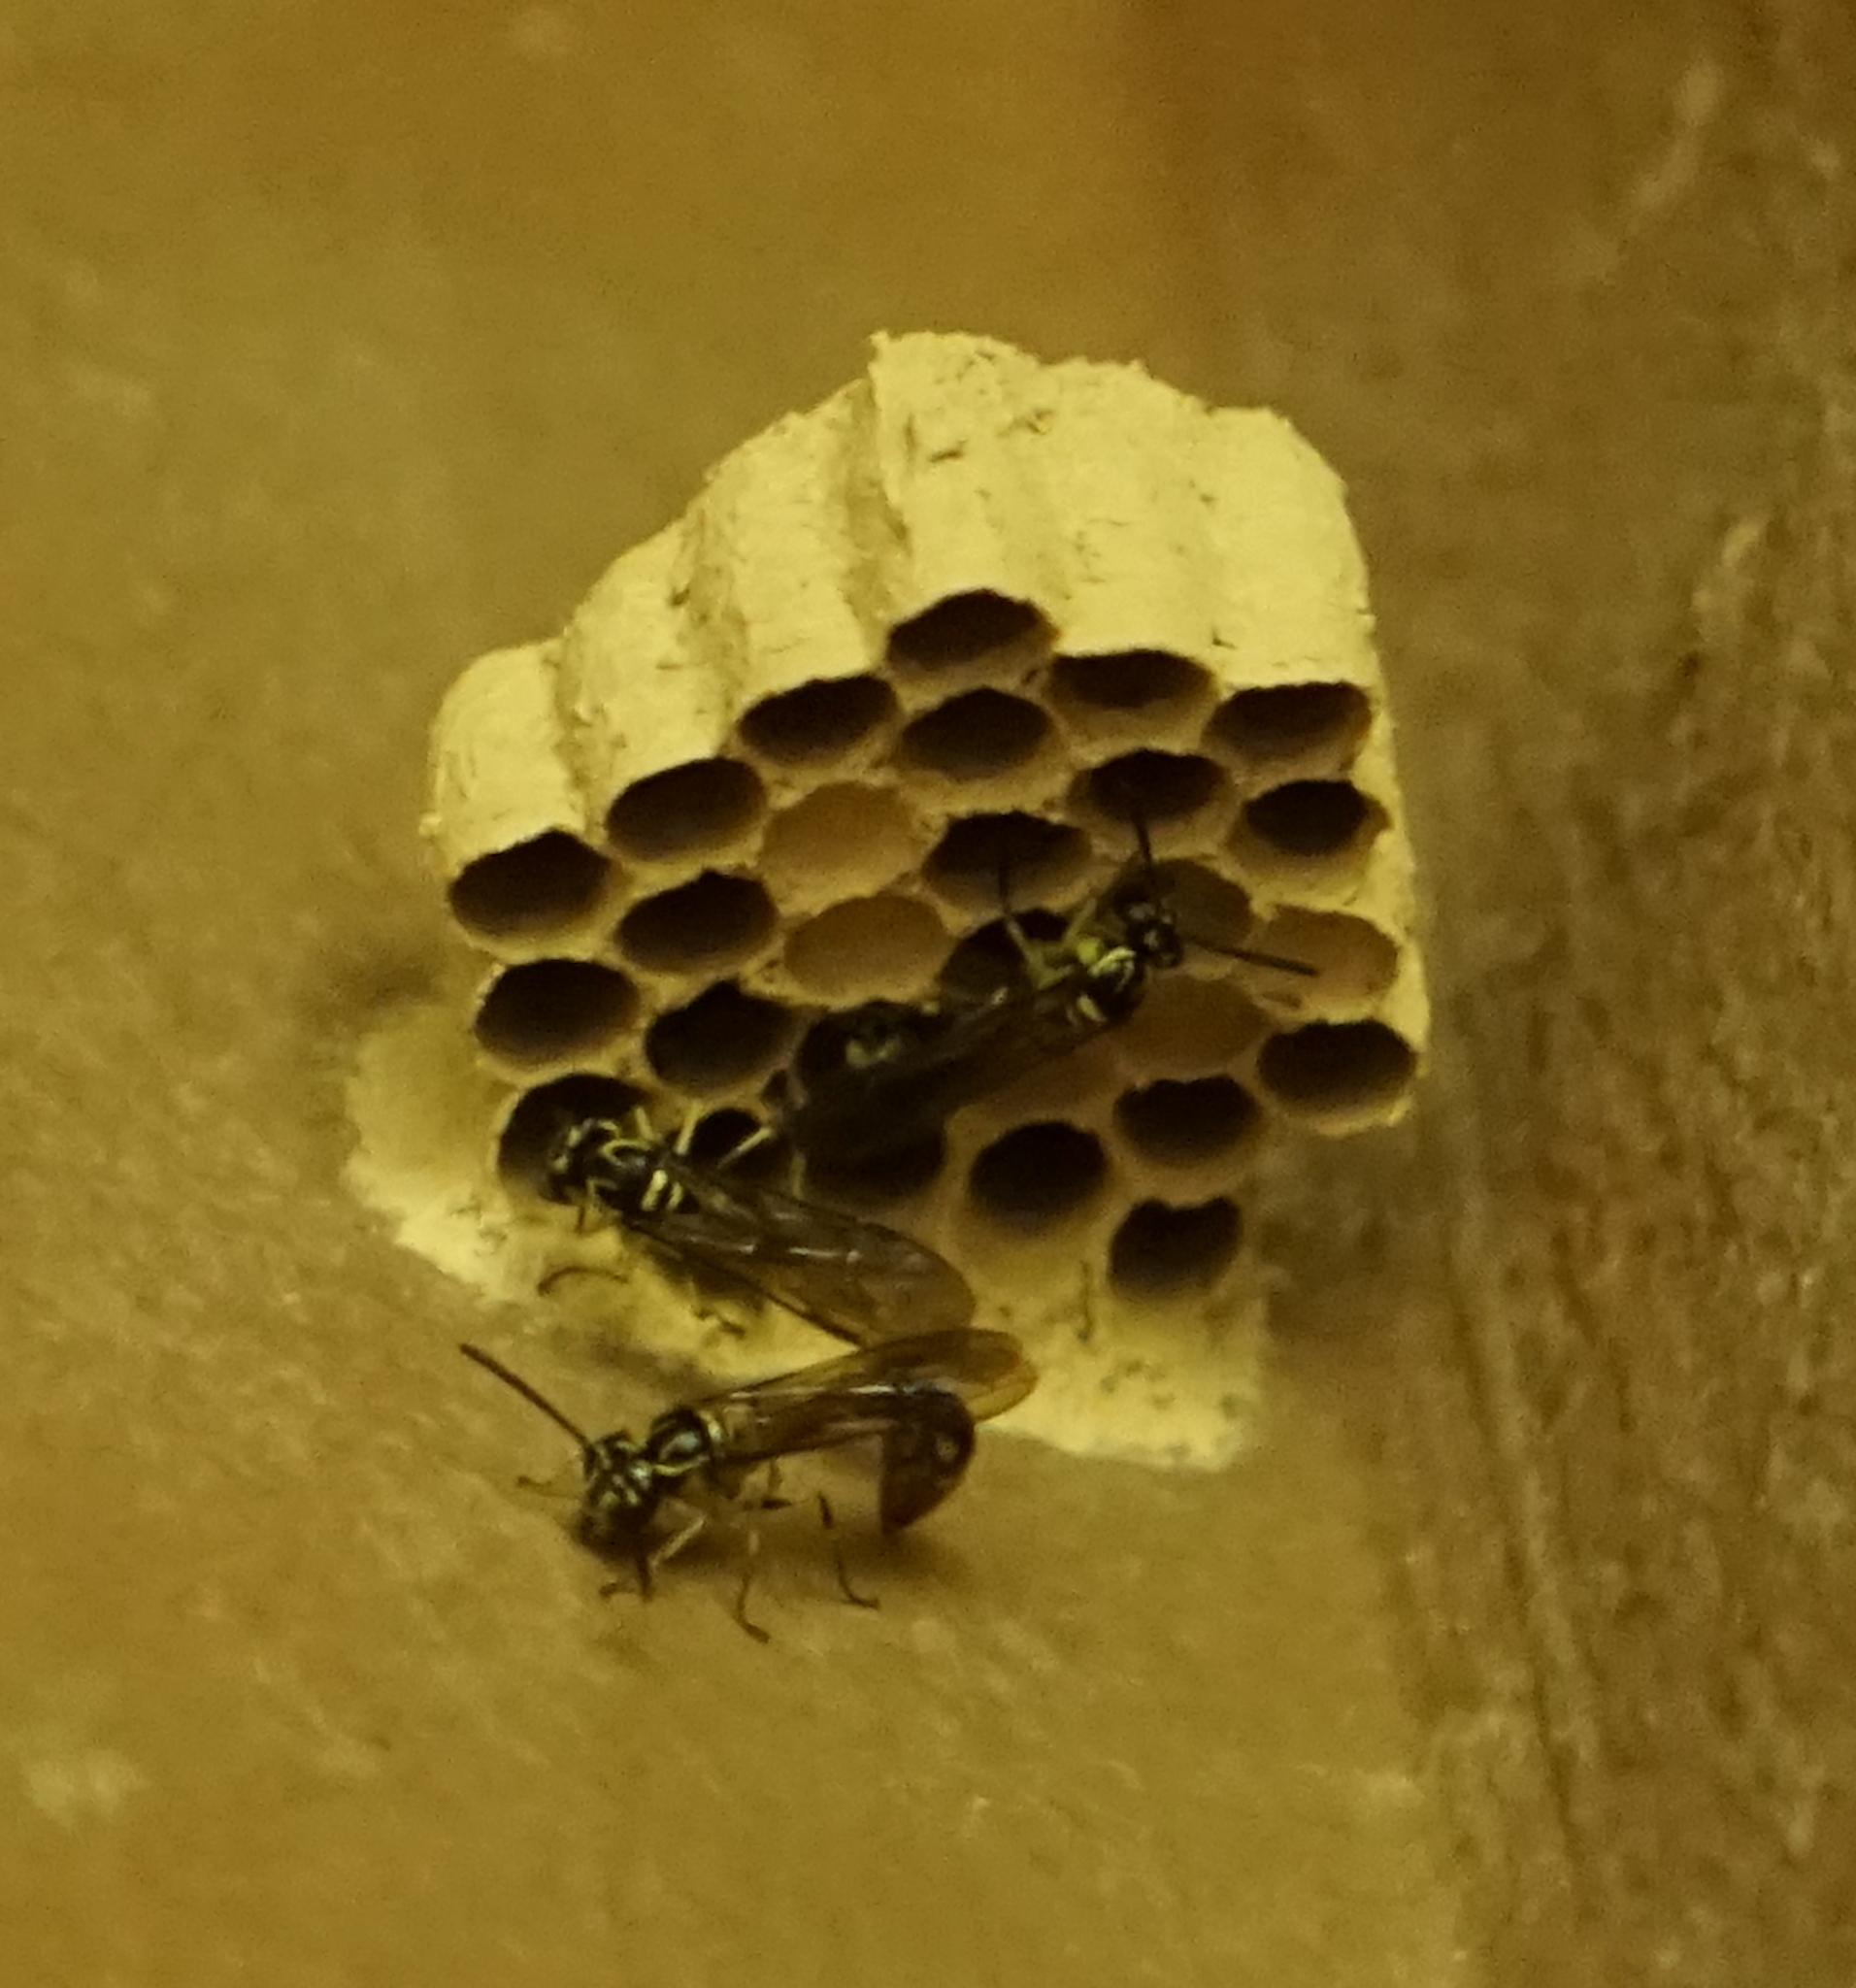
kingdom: Animalia
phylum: Arthropoda
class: Insecta
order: Hymenoptera
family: Vespidae
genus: Liostenogaster
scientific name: Liostenogaster
